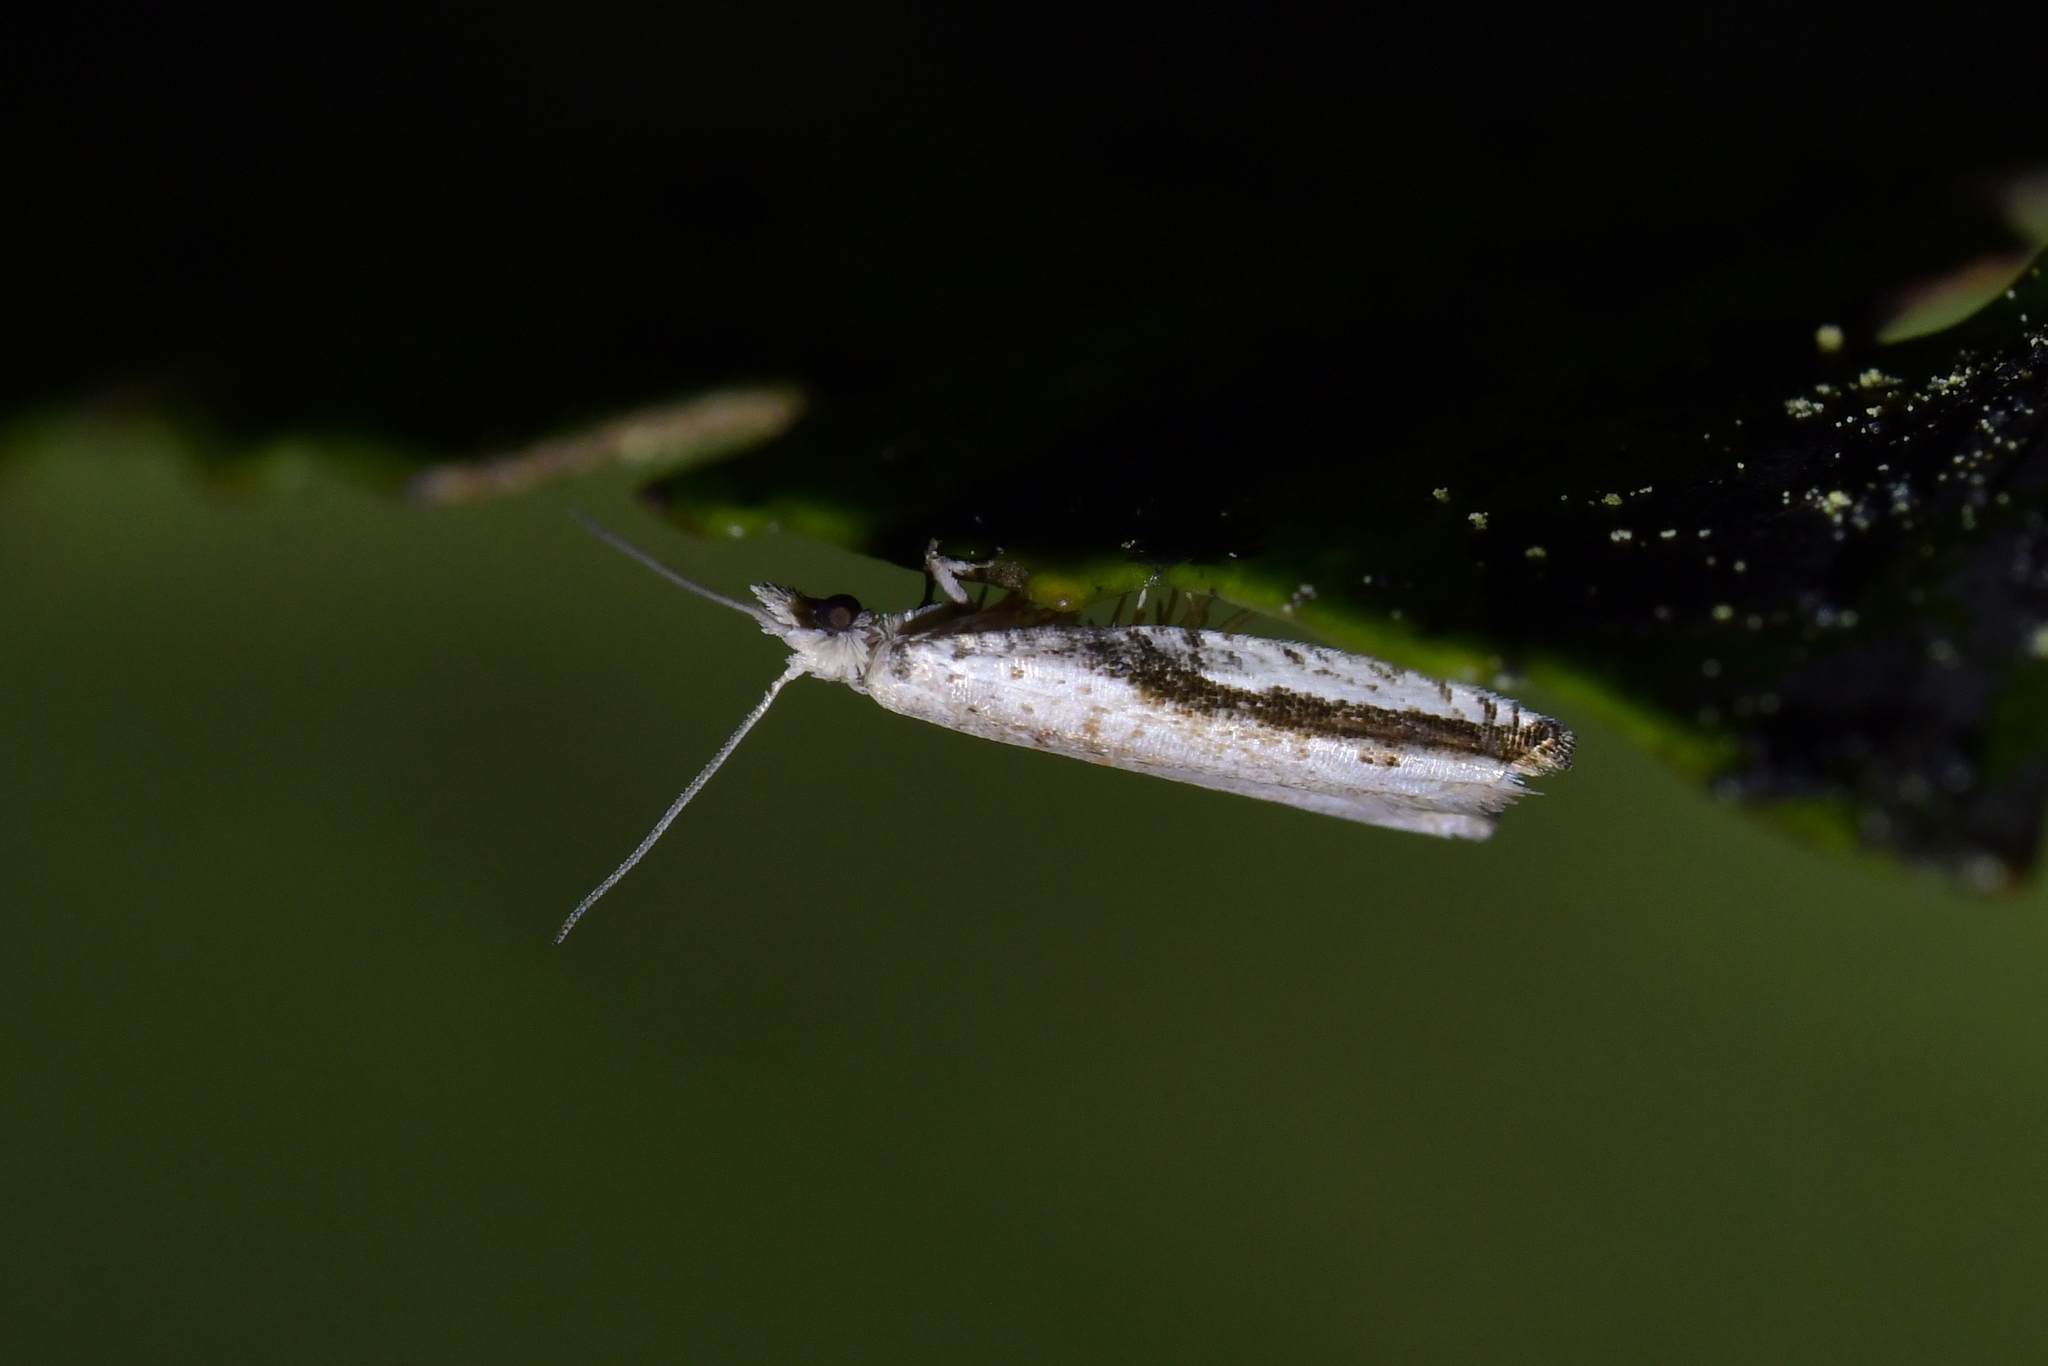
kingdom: Animalia
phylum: Arthropoda
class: Insecta
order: Lepidoptera
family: Tortricidae
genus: Holocola
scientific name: Holocola
